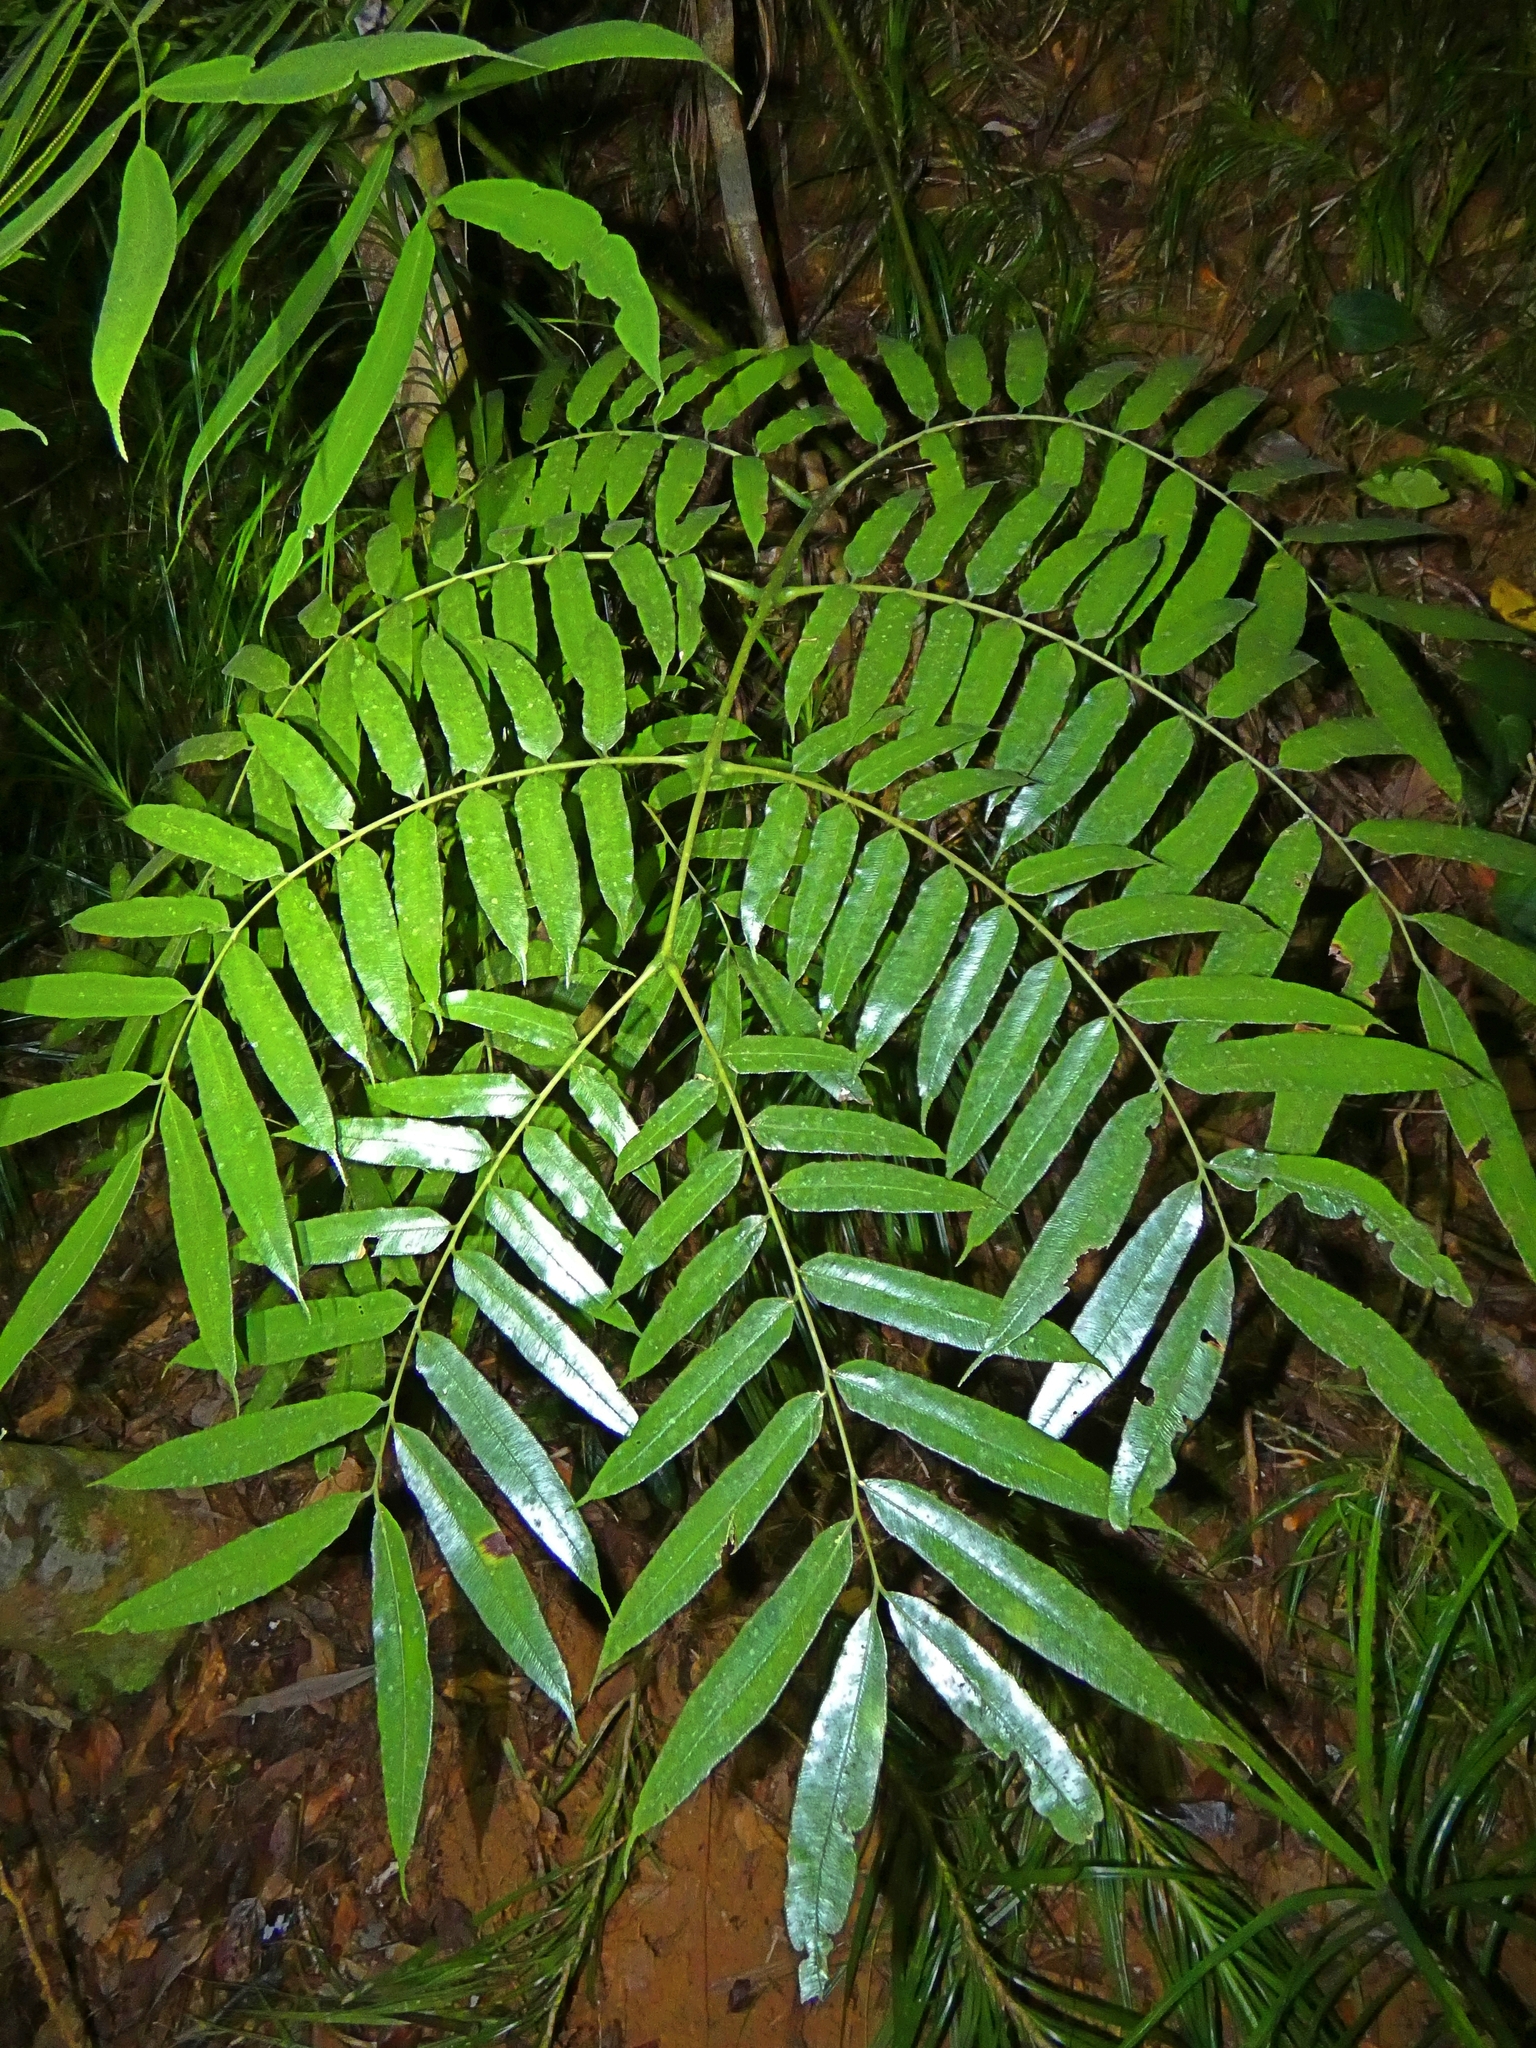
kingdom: Plantae
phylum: Tracheophyta
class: Polypodiopsida
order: Marattiales
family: Marattiaceae
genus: Ptisana
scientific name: Ptisana oreades
